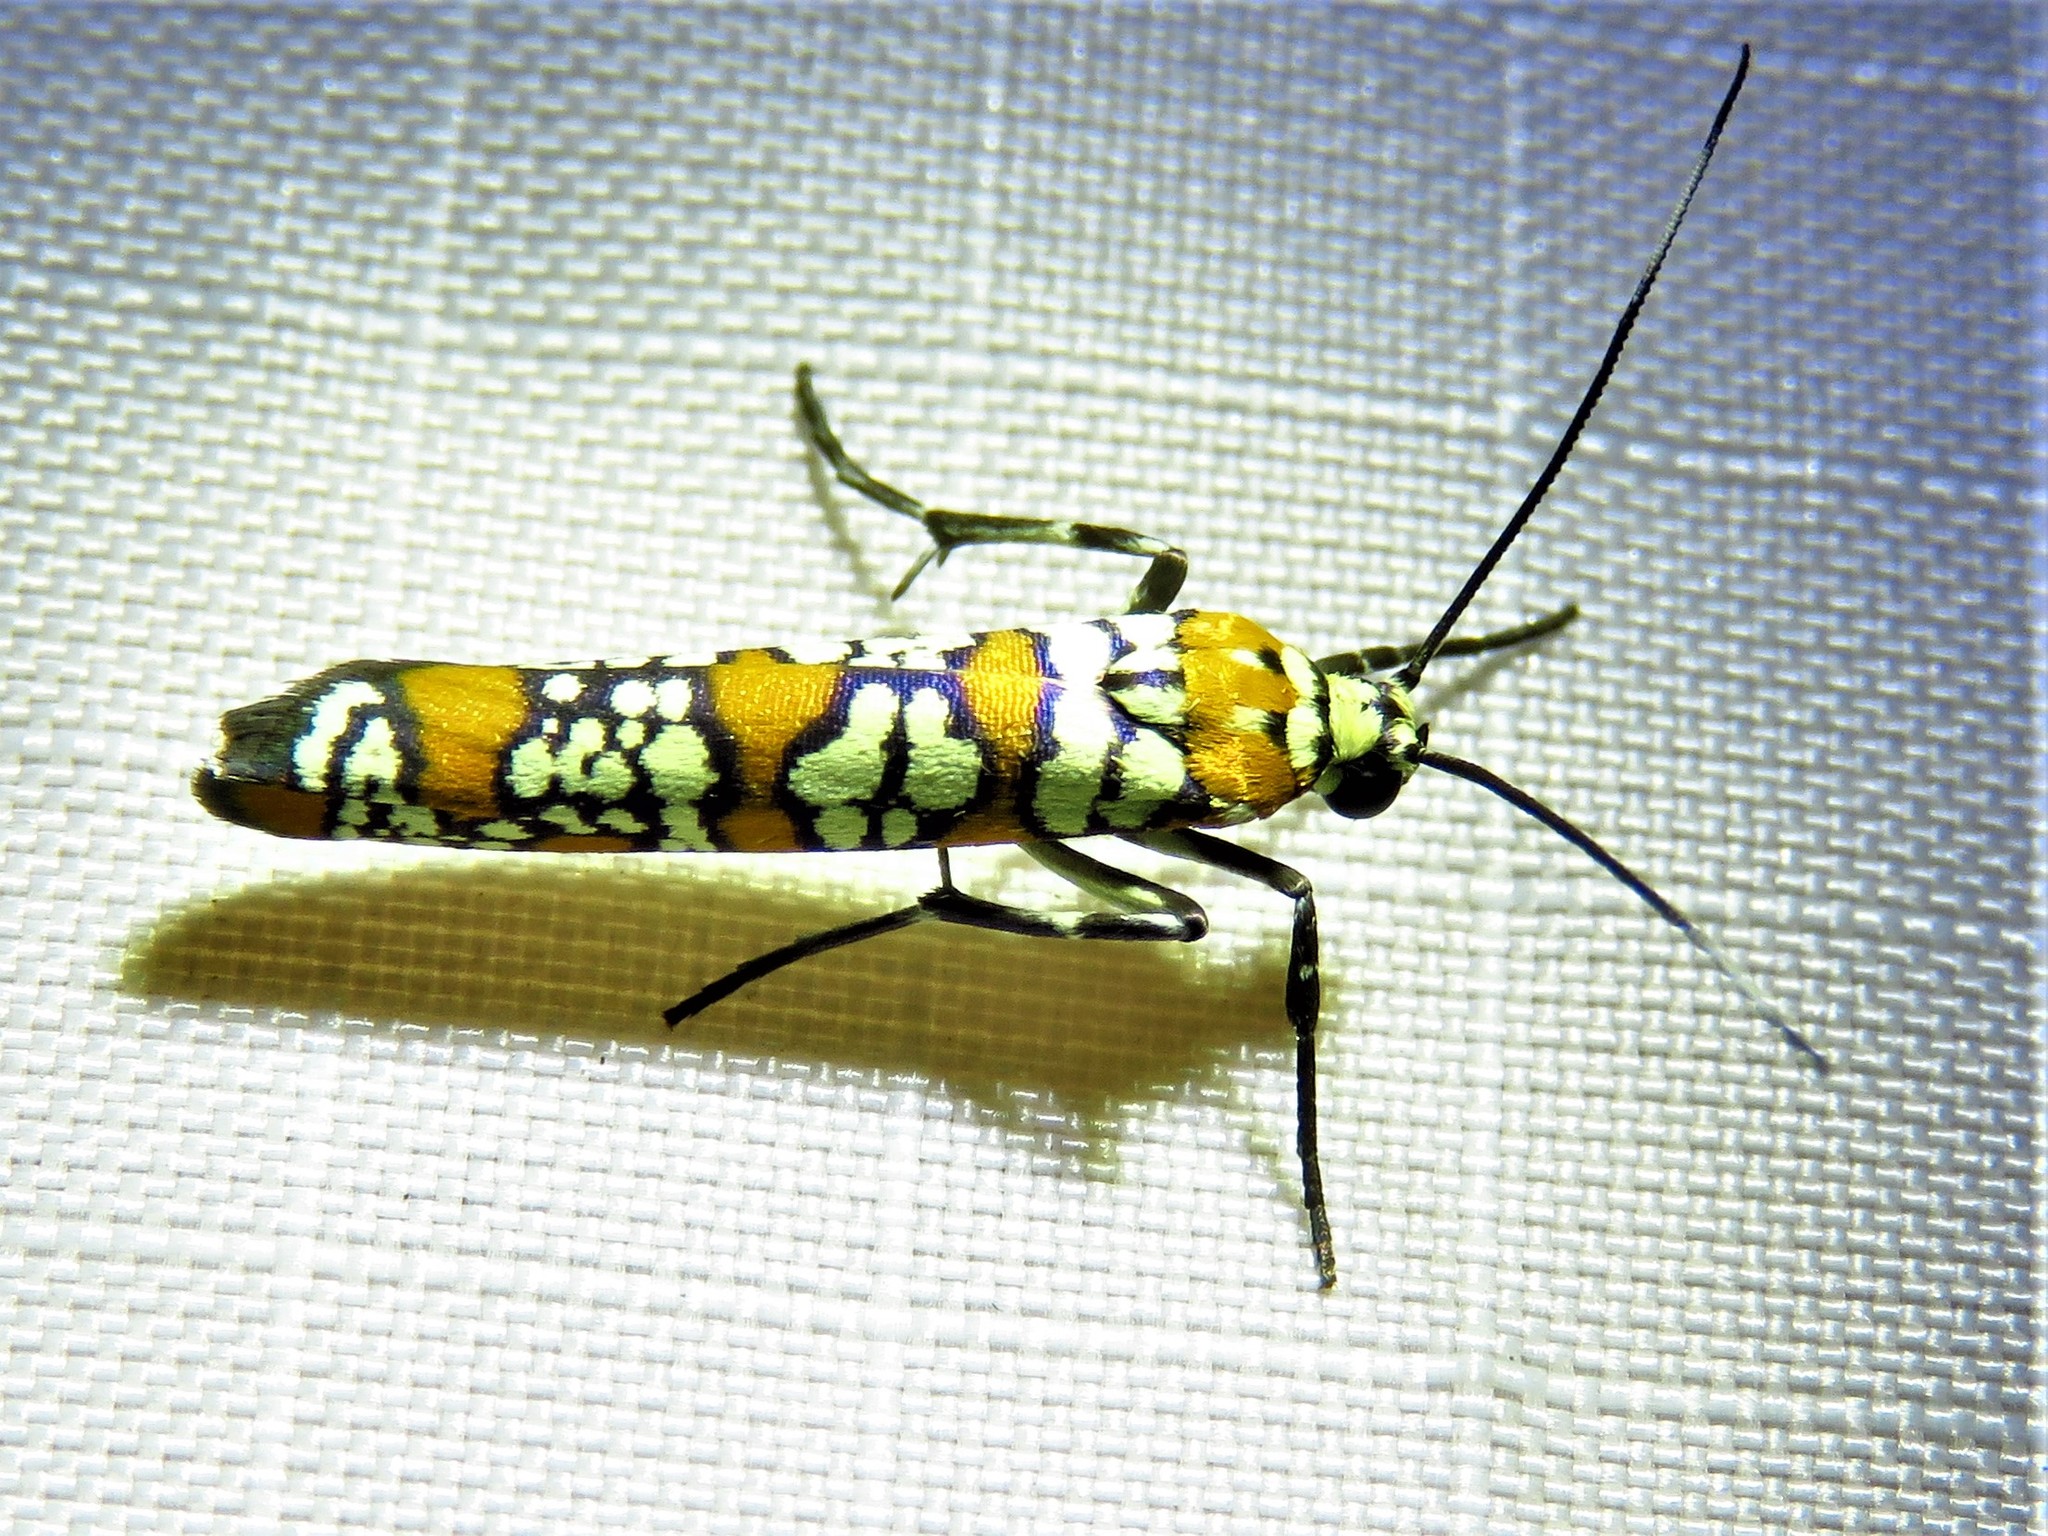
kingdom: Animalia
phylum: Arthropoda
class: Insecta
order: Lepidoptera
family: Attevidae
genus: Atteva
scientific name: Atteva punctella
